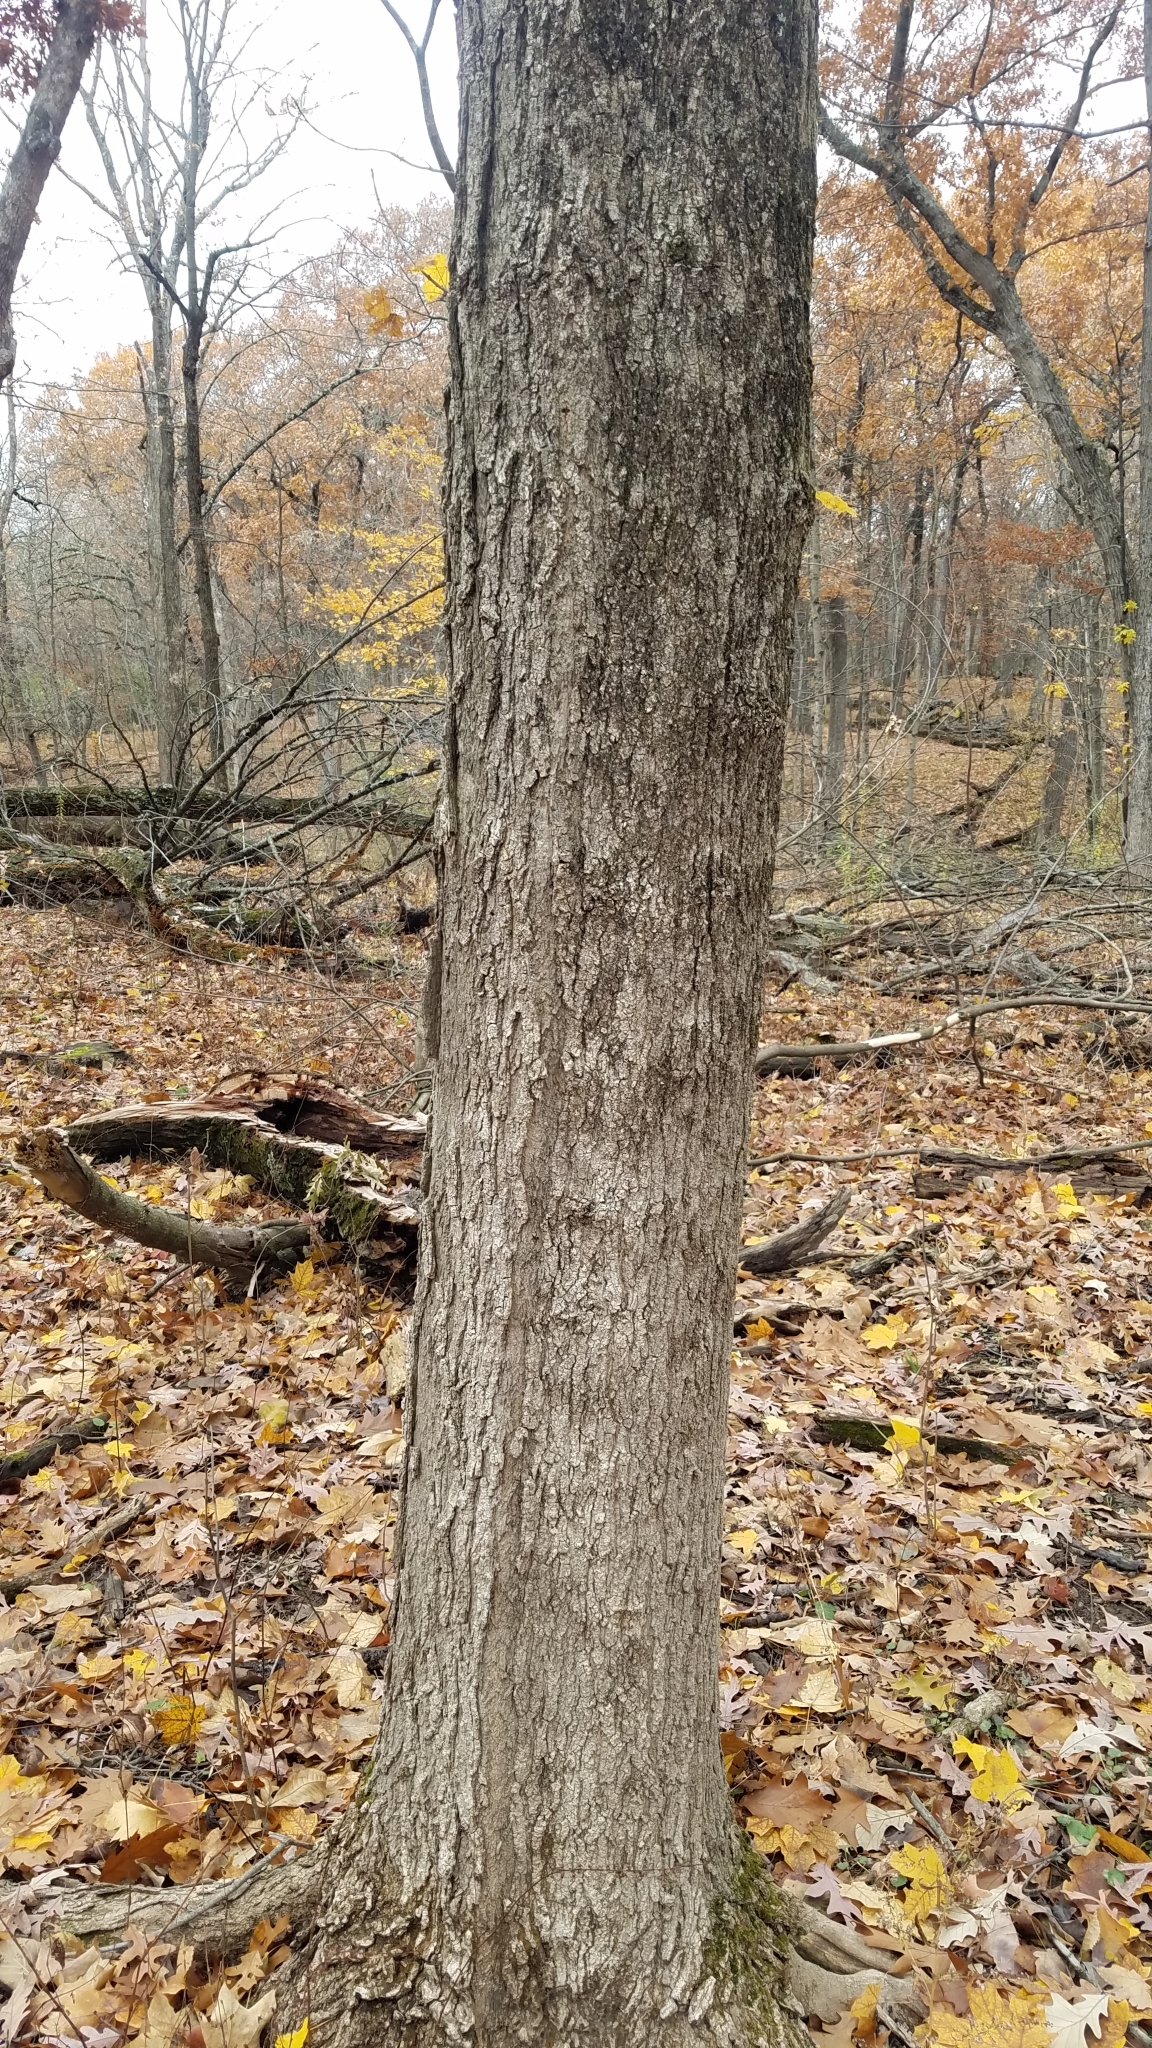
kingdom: Plantae
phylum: Tracheophyta
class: Magnoliopsida
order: Sapindales
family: Sapindaceae
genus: Acer
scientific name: Acer saccharum
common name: Sugar maple
